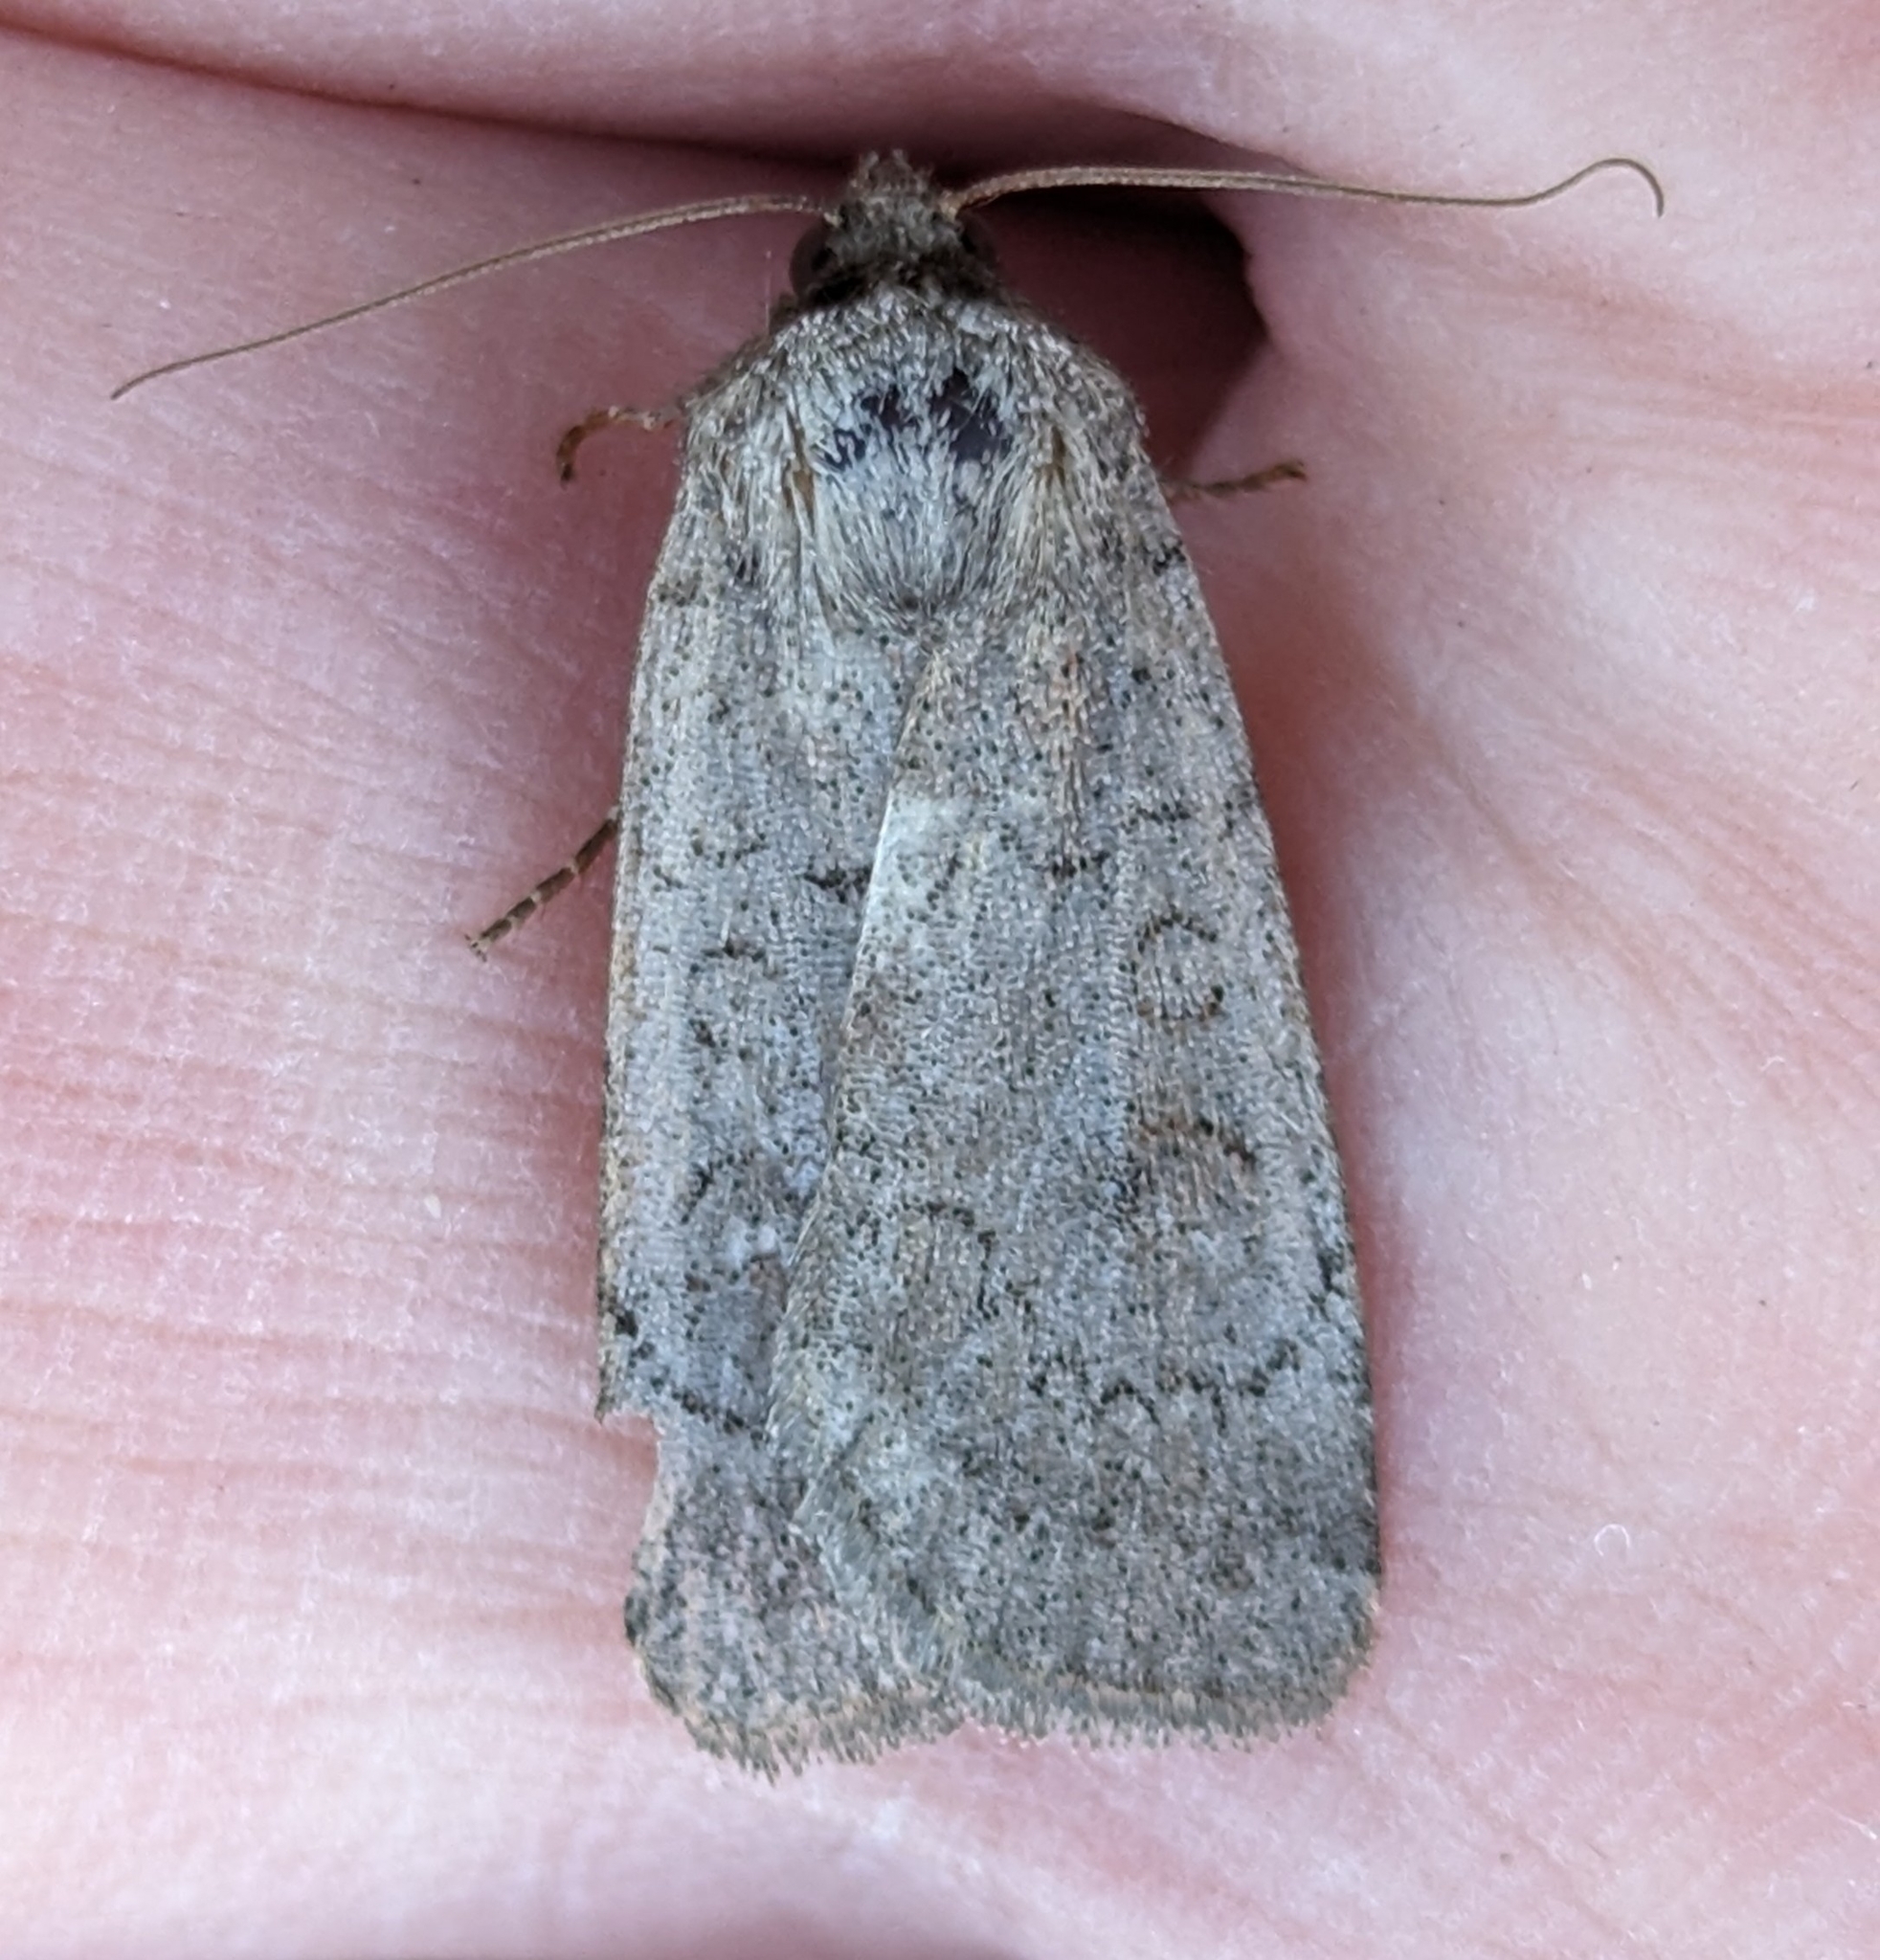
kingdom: Animalia
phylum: Arthropoda
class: Insecta
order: Lepidoptera
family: Noctuidae
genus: Protolampra
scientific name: Protolampra brunneicollis
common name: Brown-collared dart
